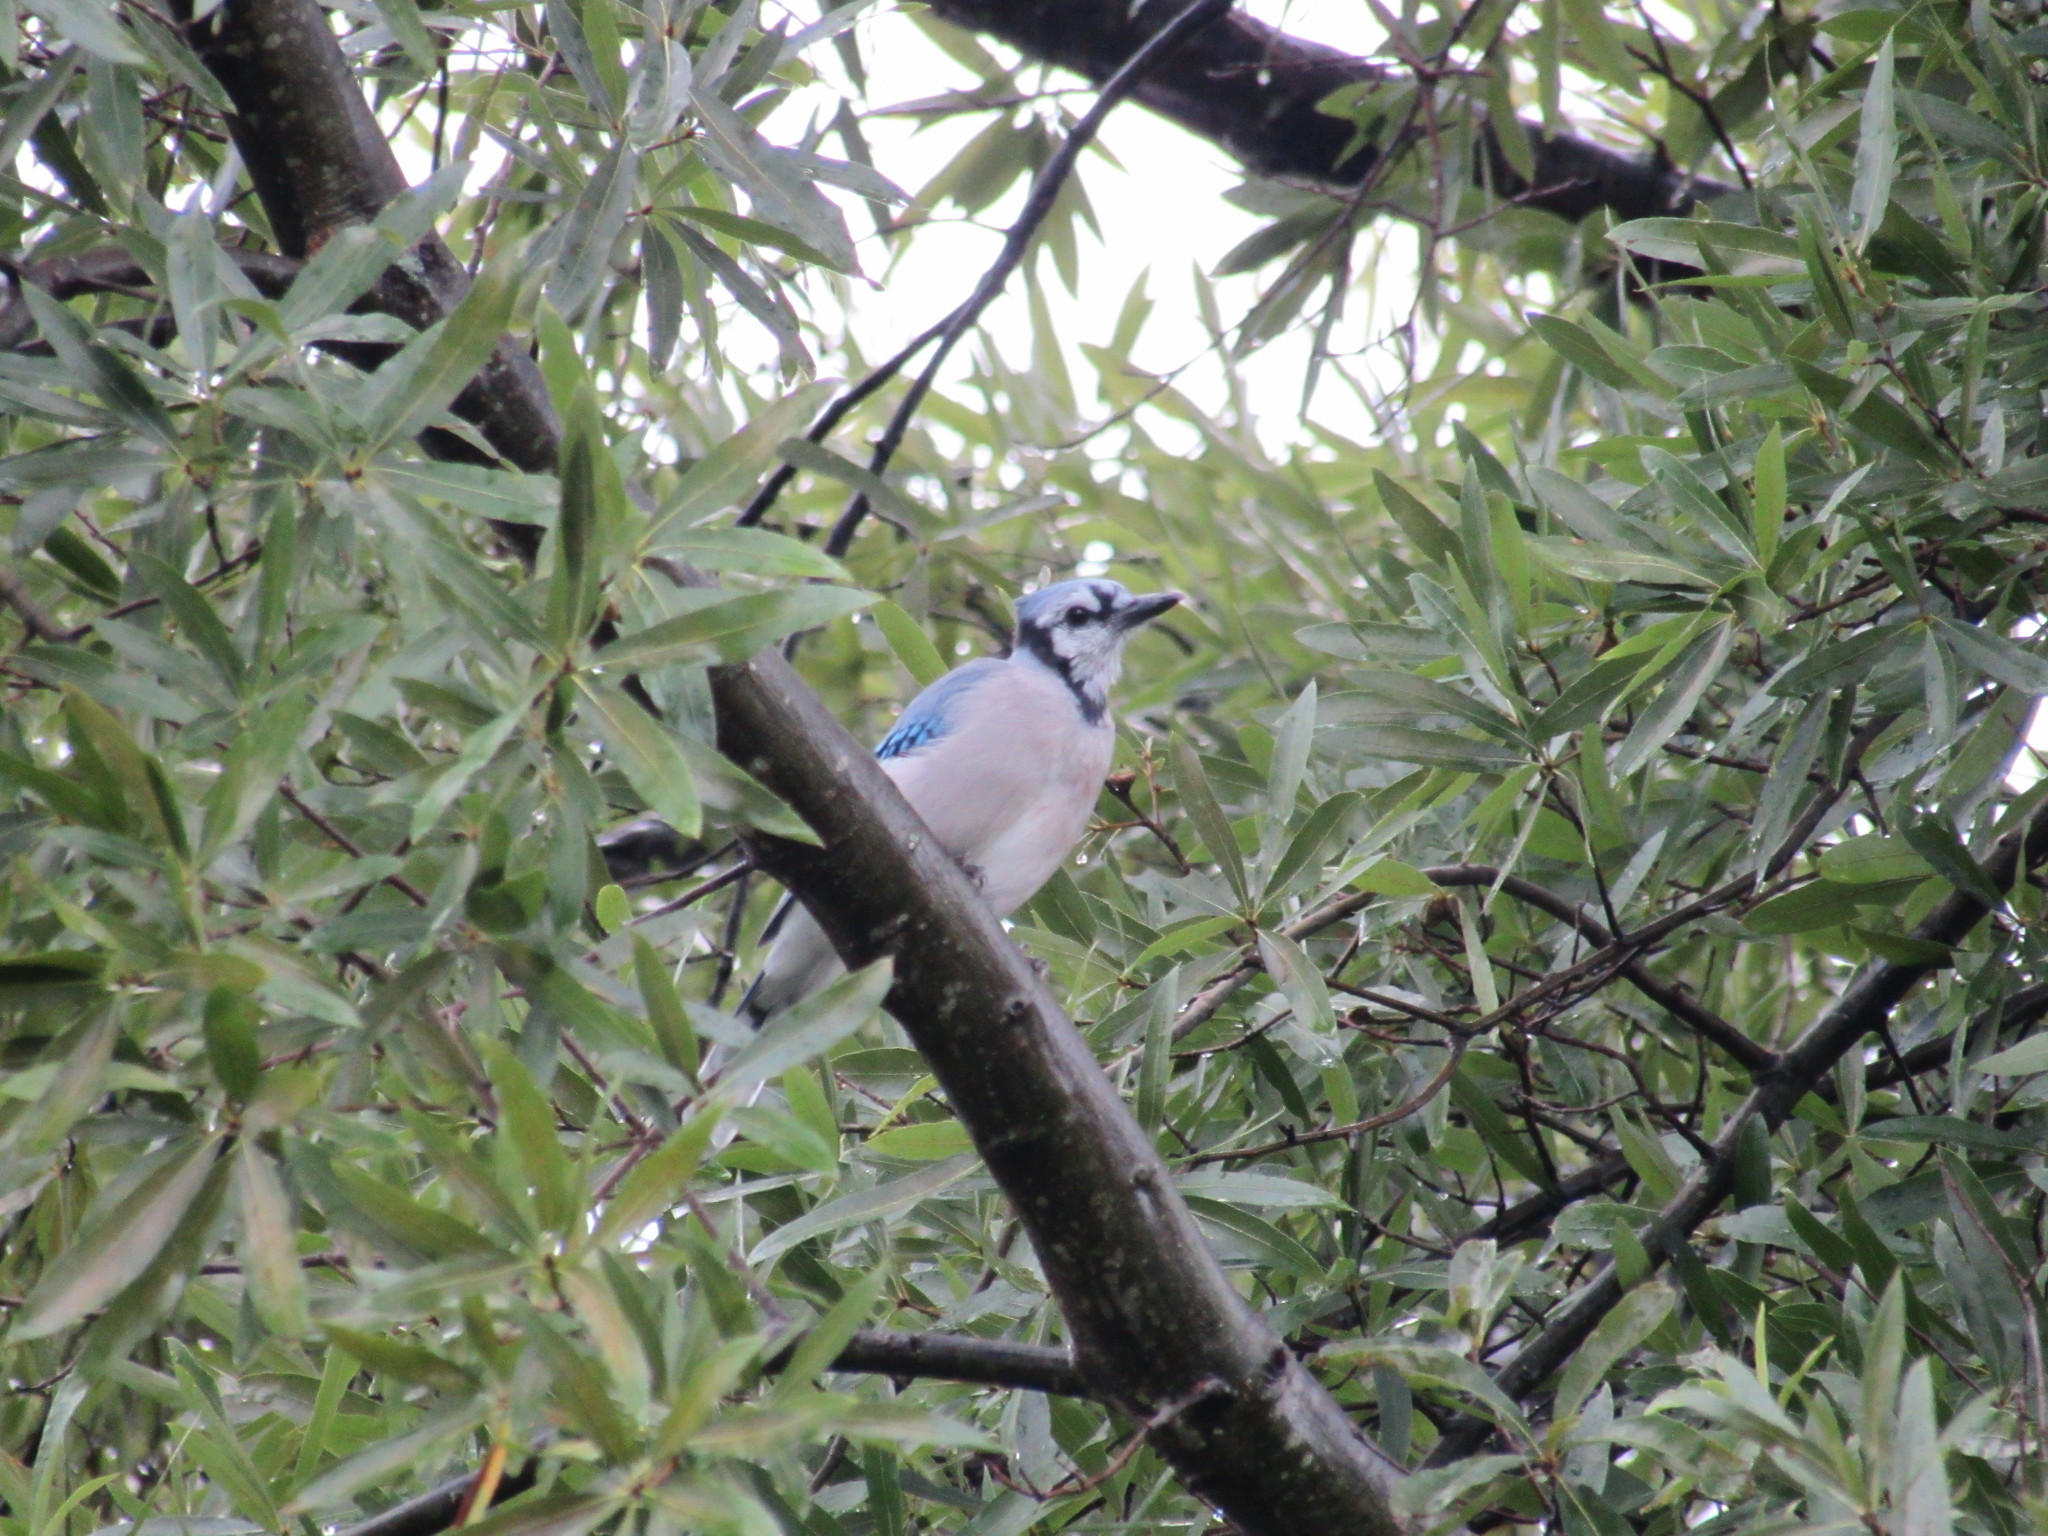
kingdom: Animalia
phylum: Chordata
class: Aves
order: Passeriformes
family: Corvidae
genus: Cyanocitta
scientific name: Cyanocitta cristata
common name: Blue jay
